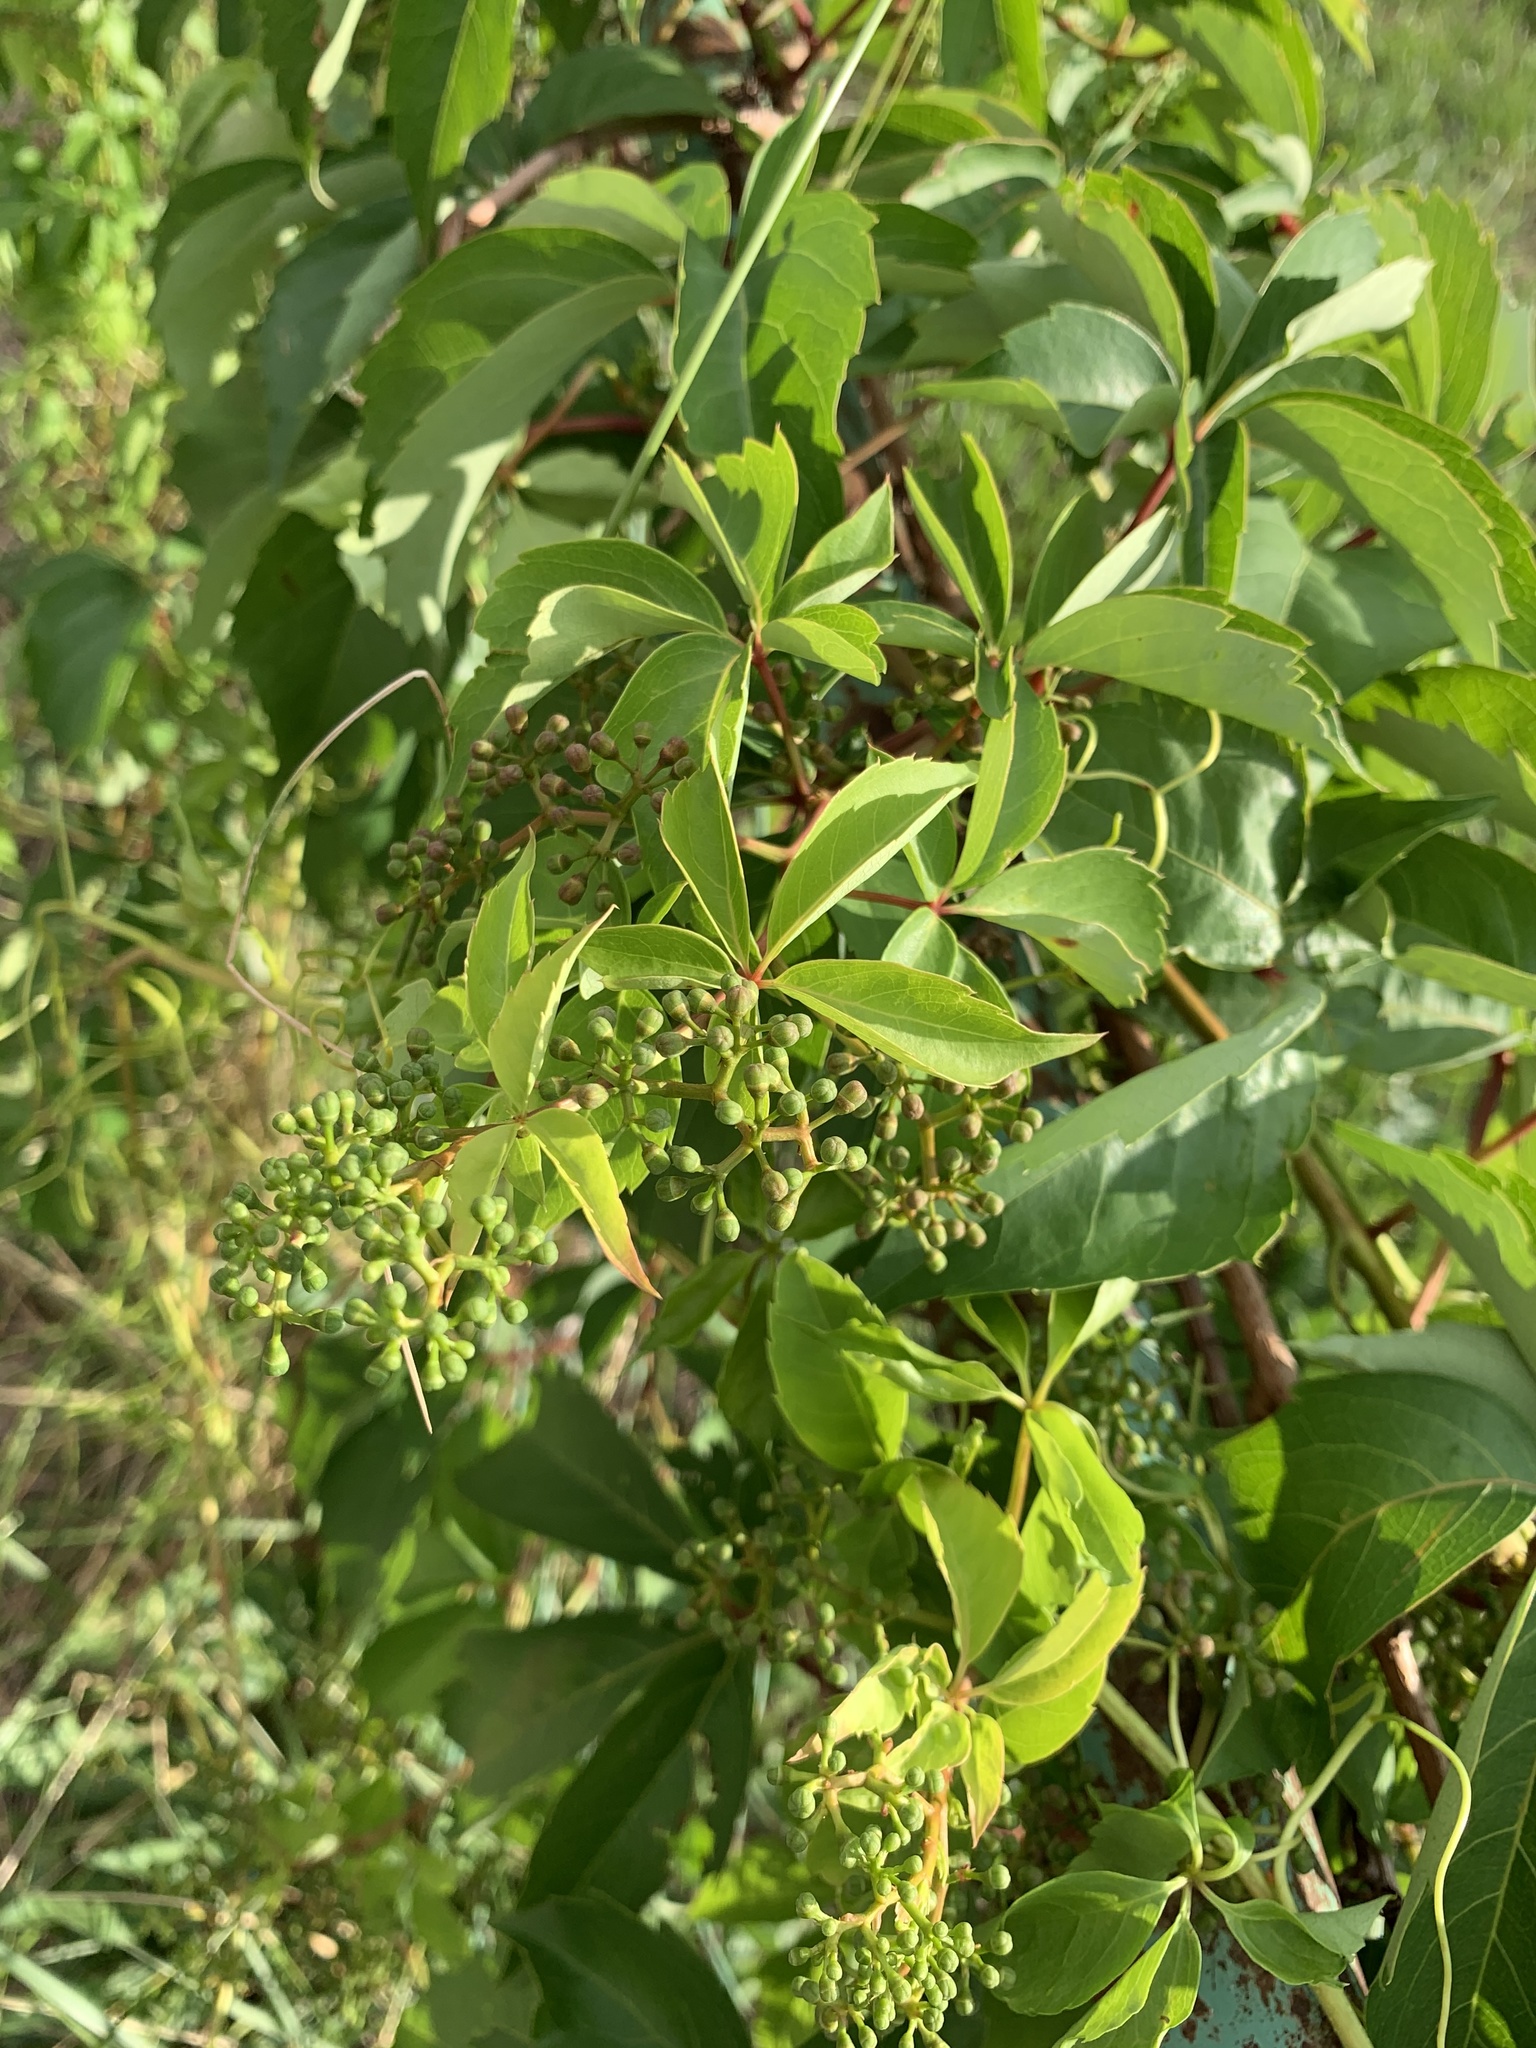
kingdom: Plantae
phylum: Tracheophyta
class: Magnoliopsida
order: Vitales
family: Vitaceae
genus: Parthenocissus
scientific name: Parthenocissus quinquefolia
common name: Virginia-creeper
